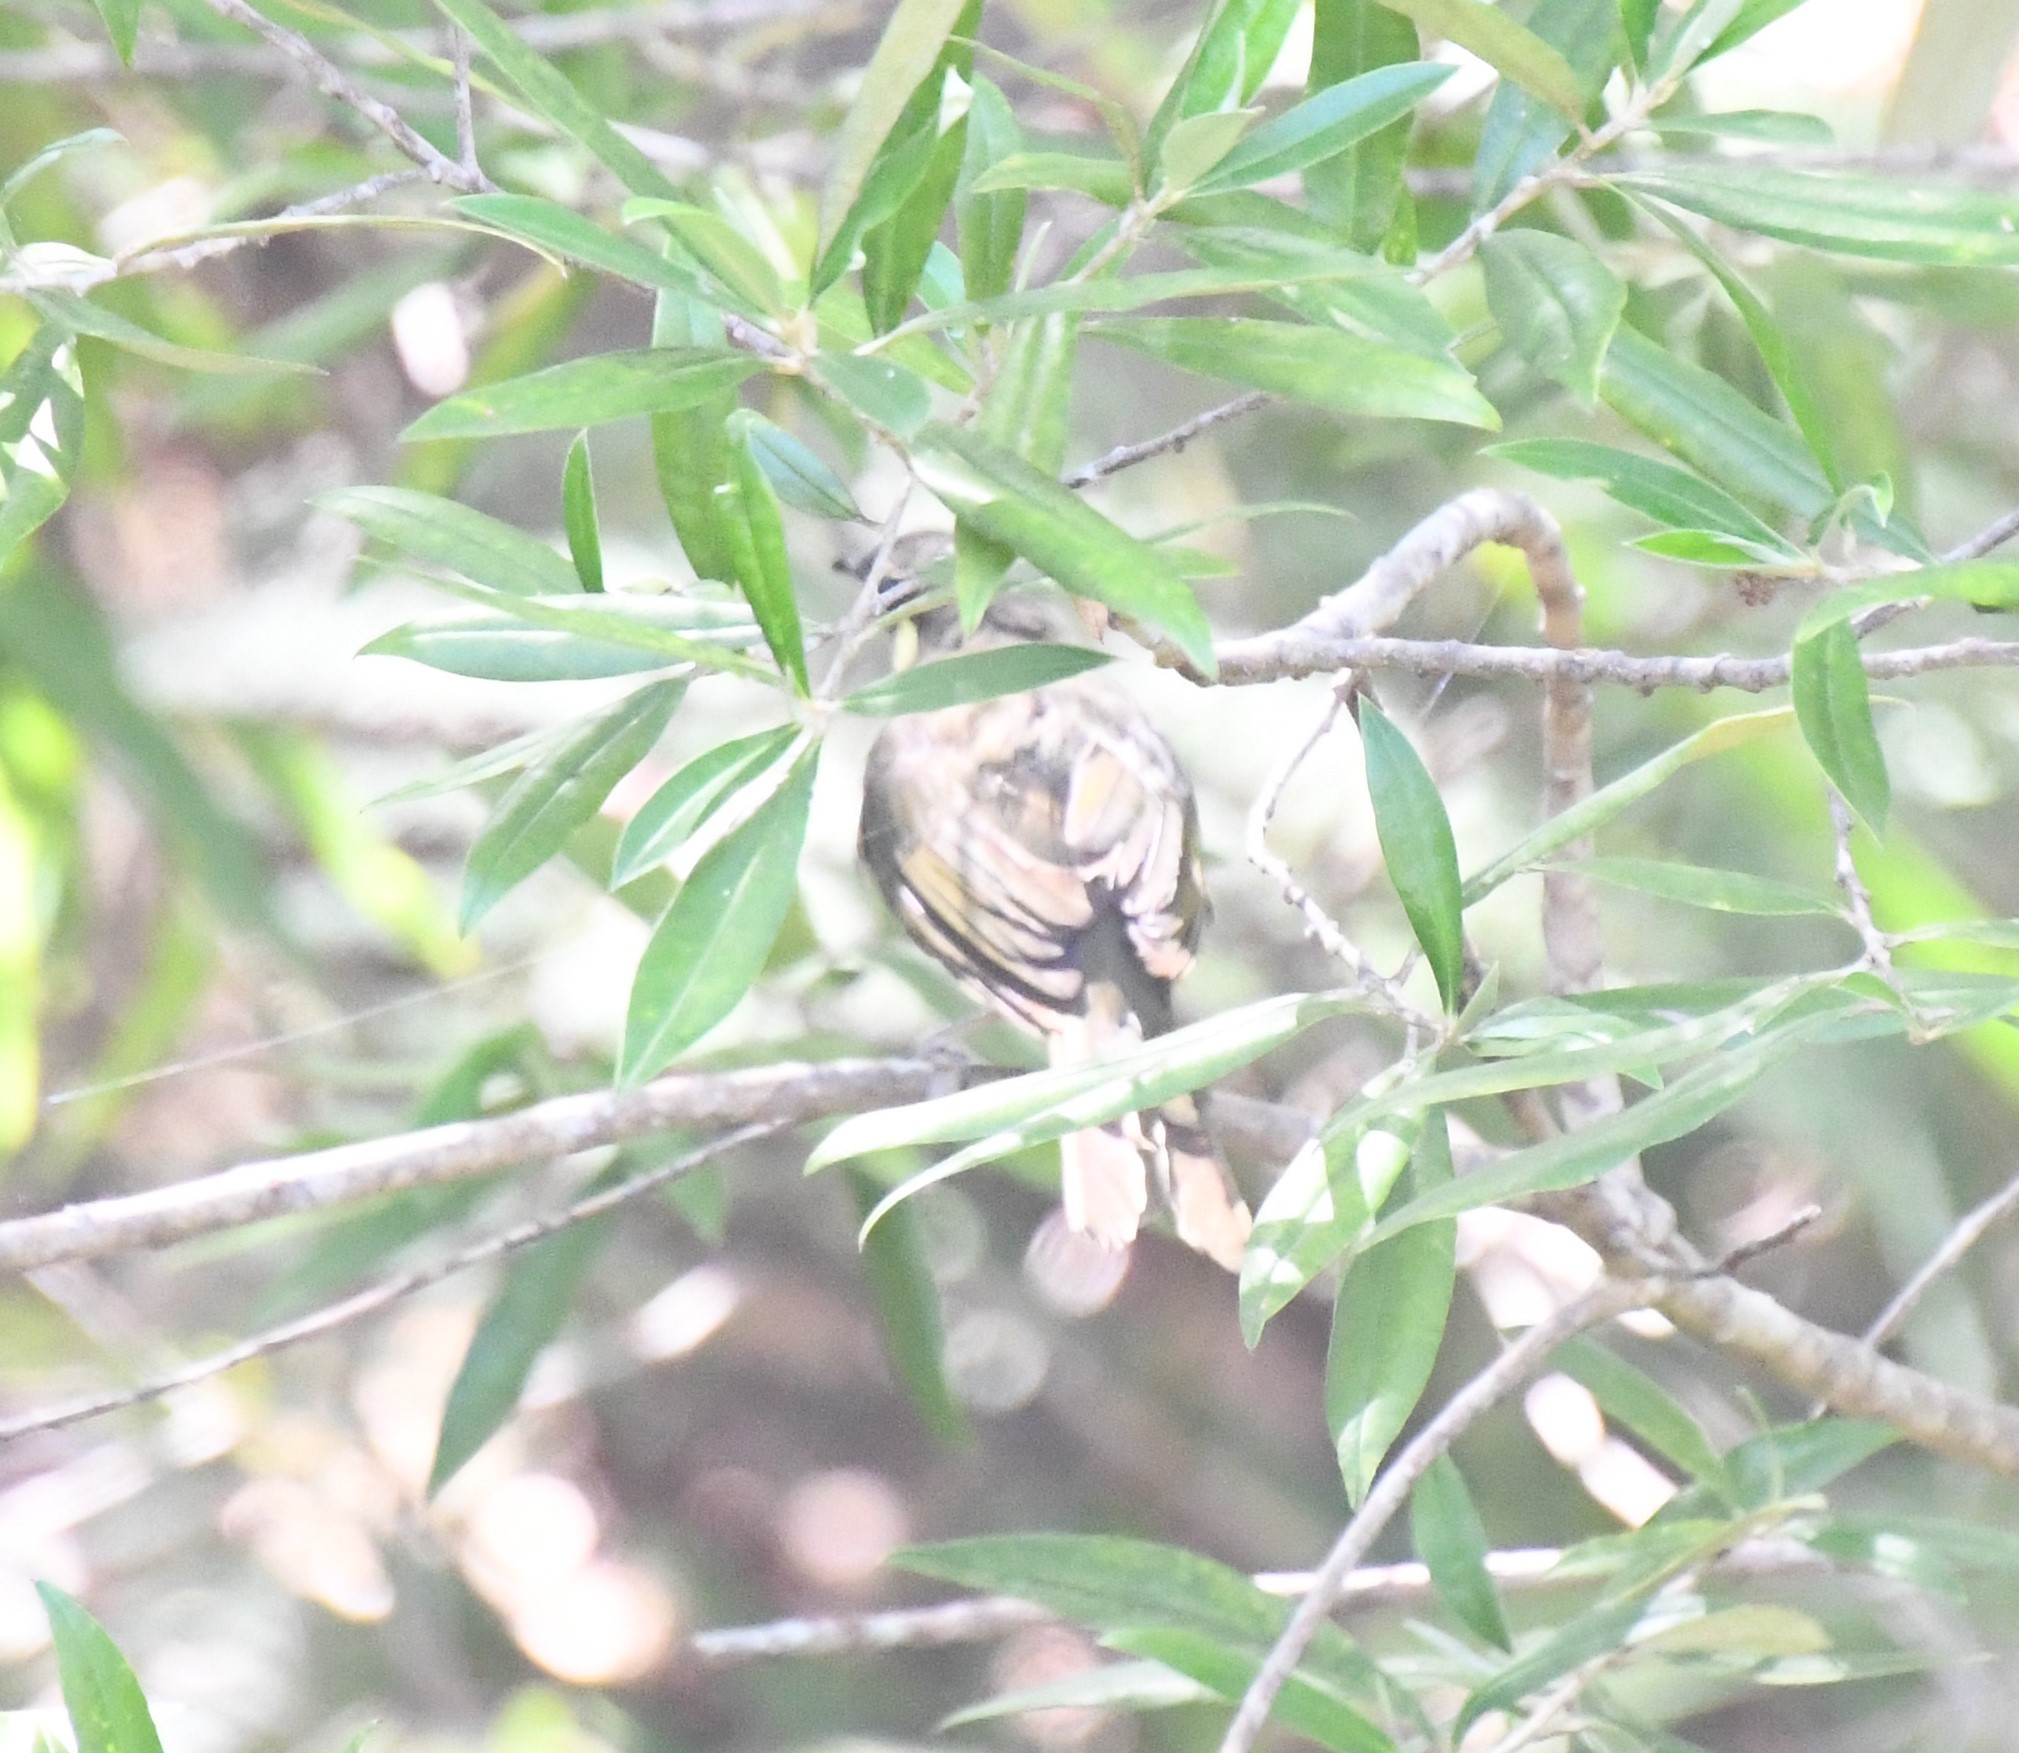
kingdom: Animalia
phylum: Chordata
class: Aves
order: Passeriformes
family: Meliphagidae
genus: Meliphaga
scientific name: Meliphaga lewinii
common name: Lewin's honeyeater
